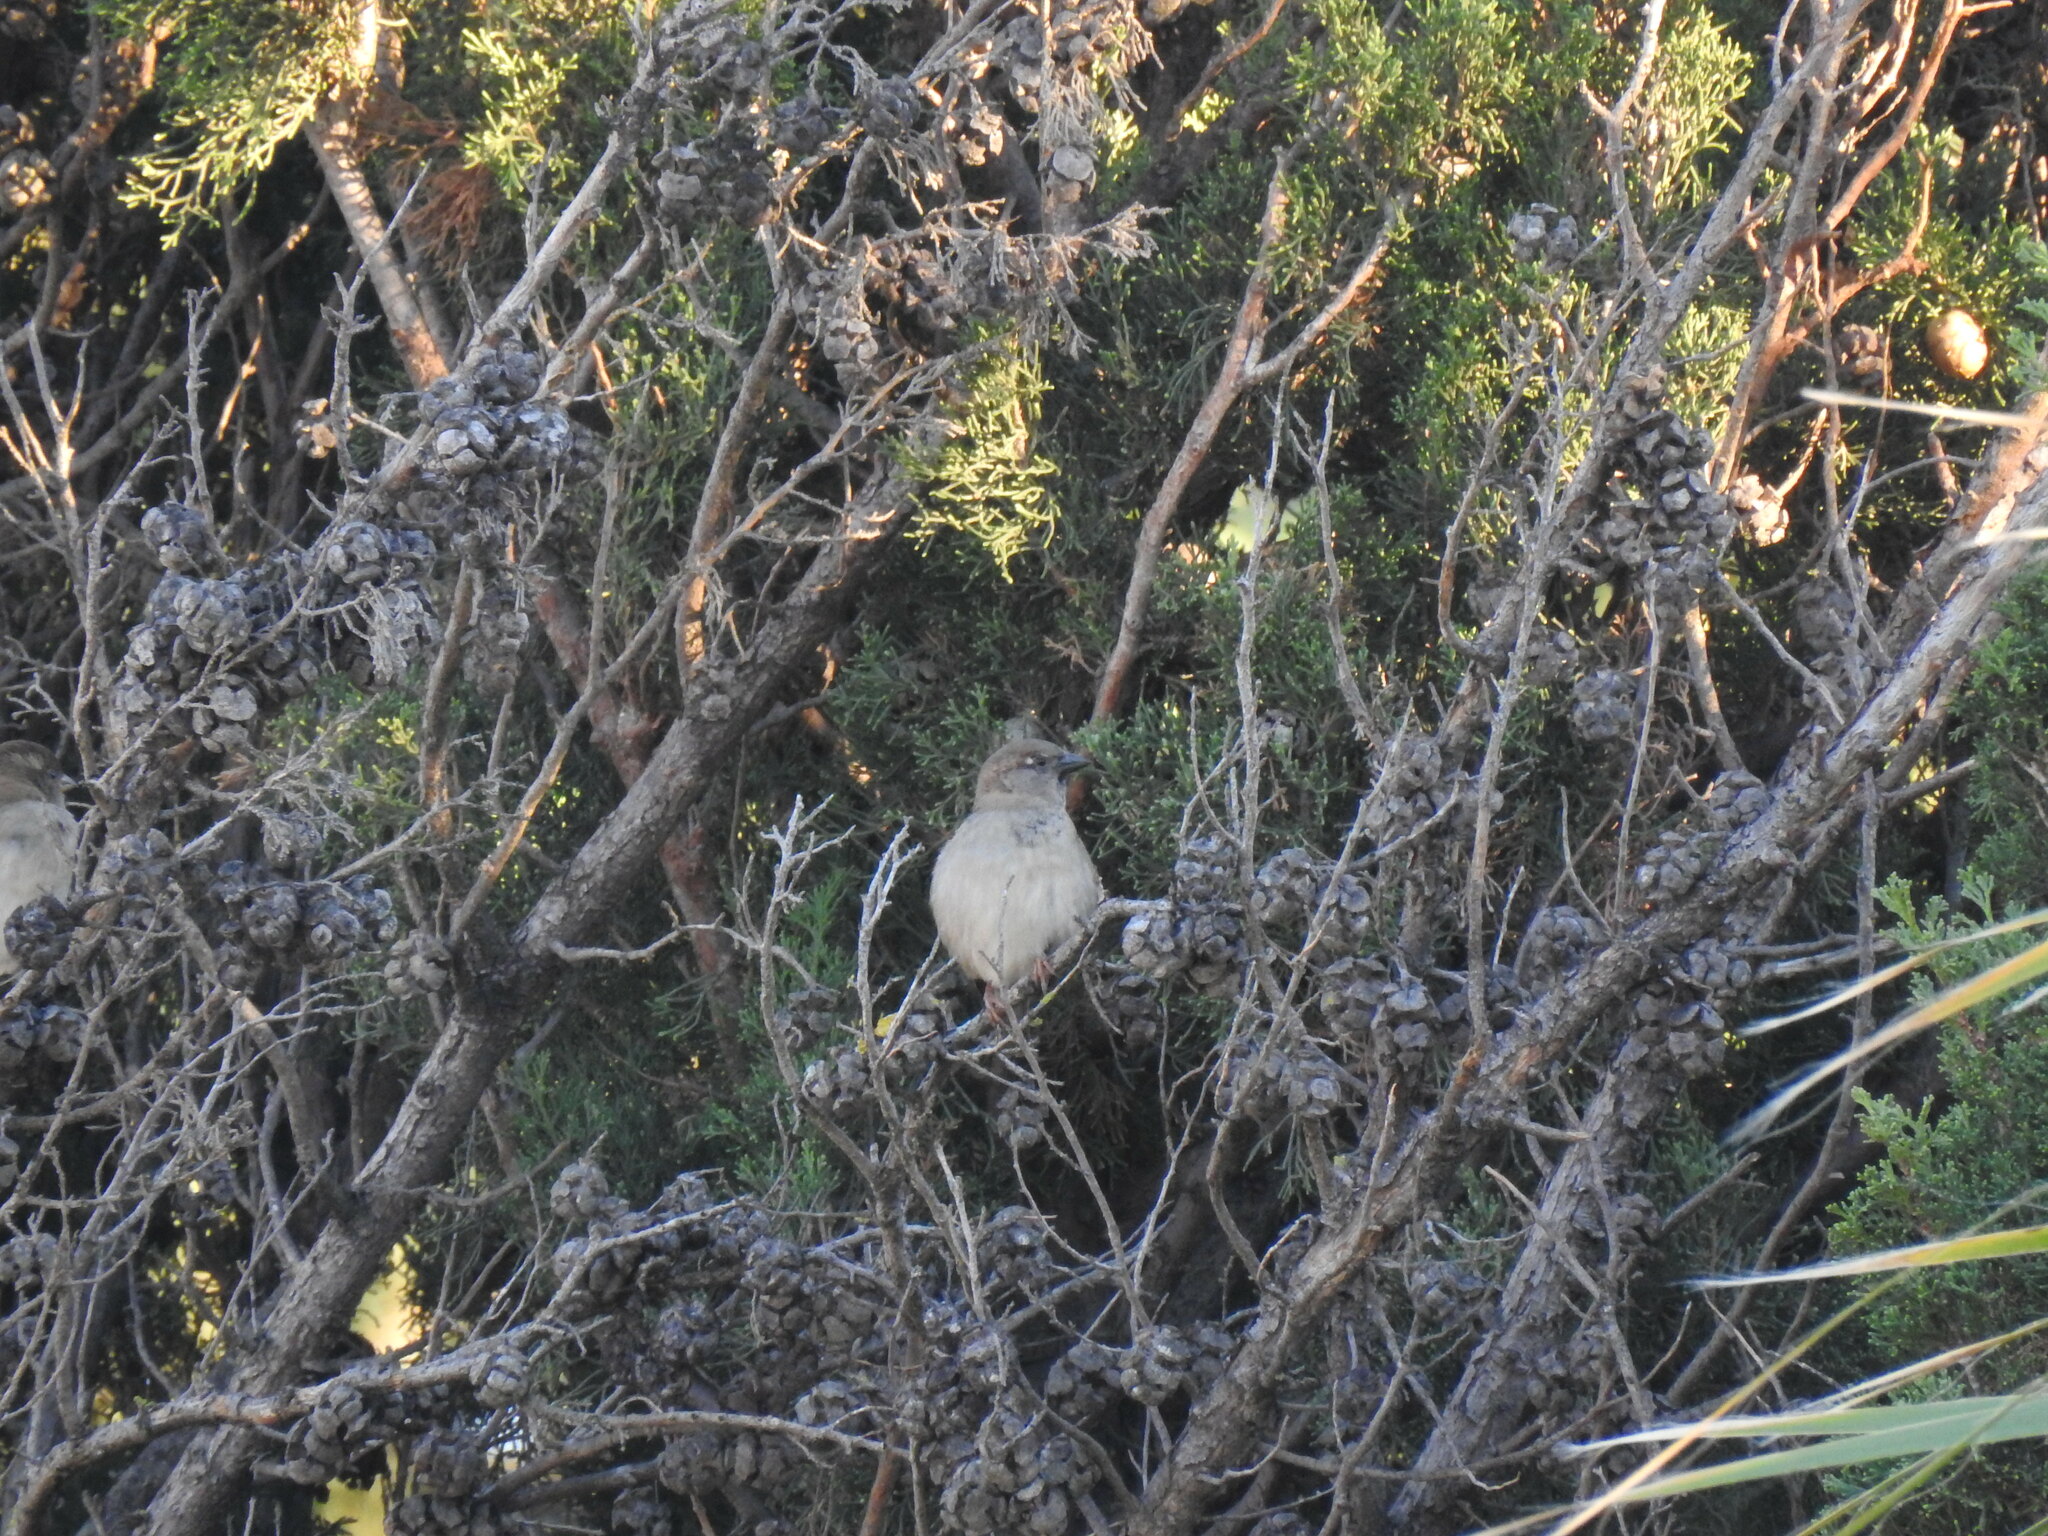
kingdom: Animalia
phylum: Chordata
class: Aves
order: Passeriformes
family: Passeridae
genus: Passer
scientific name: Passer domesticus
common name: House sparrow
